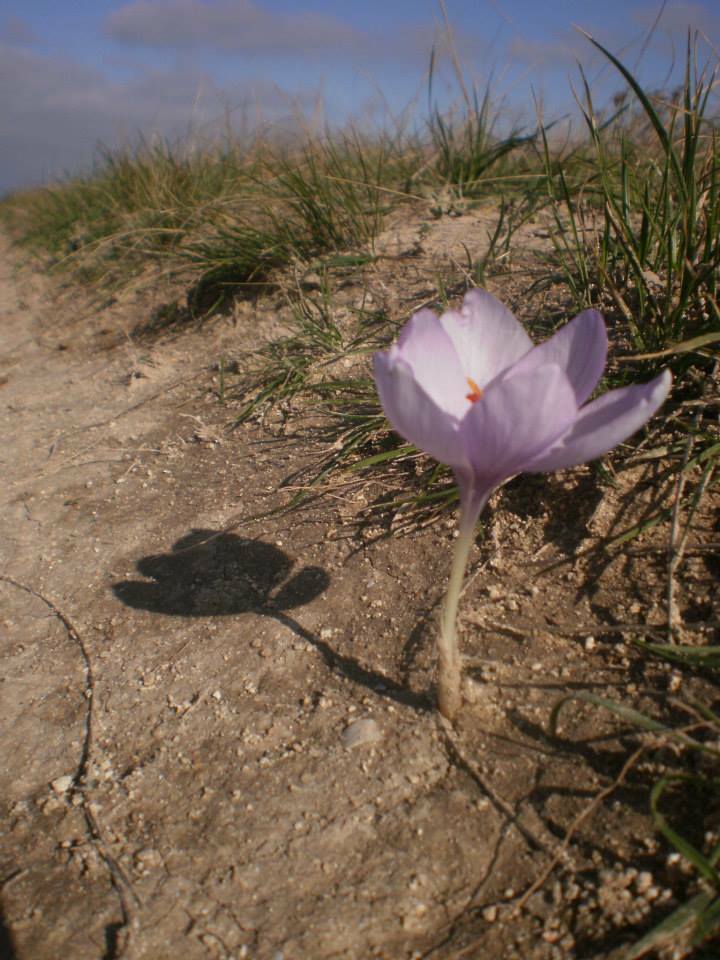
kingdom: Plantae
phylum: Tracheophyta
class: Liliopsida
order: Asparagales
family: Iridaceae
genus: Crocus
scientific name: Crocus pallasii
